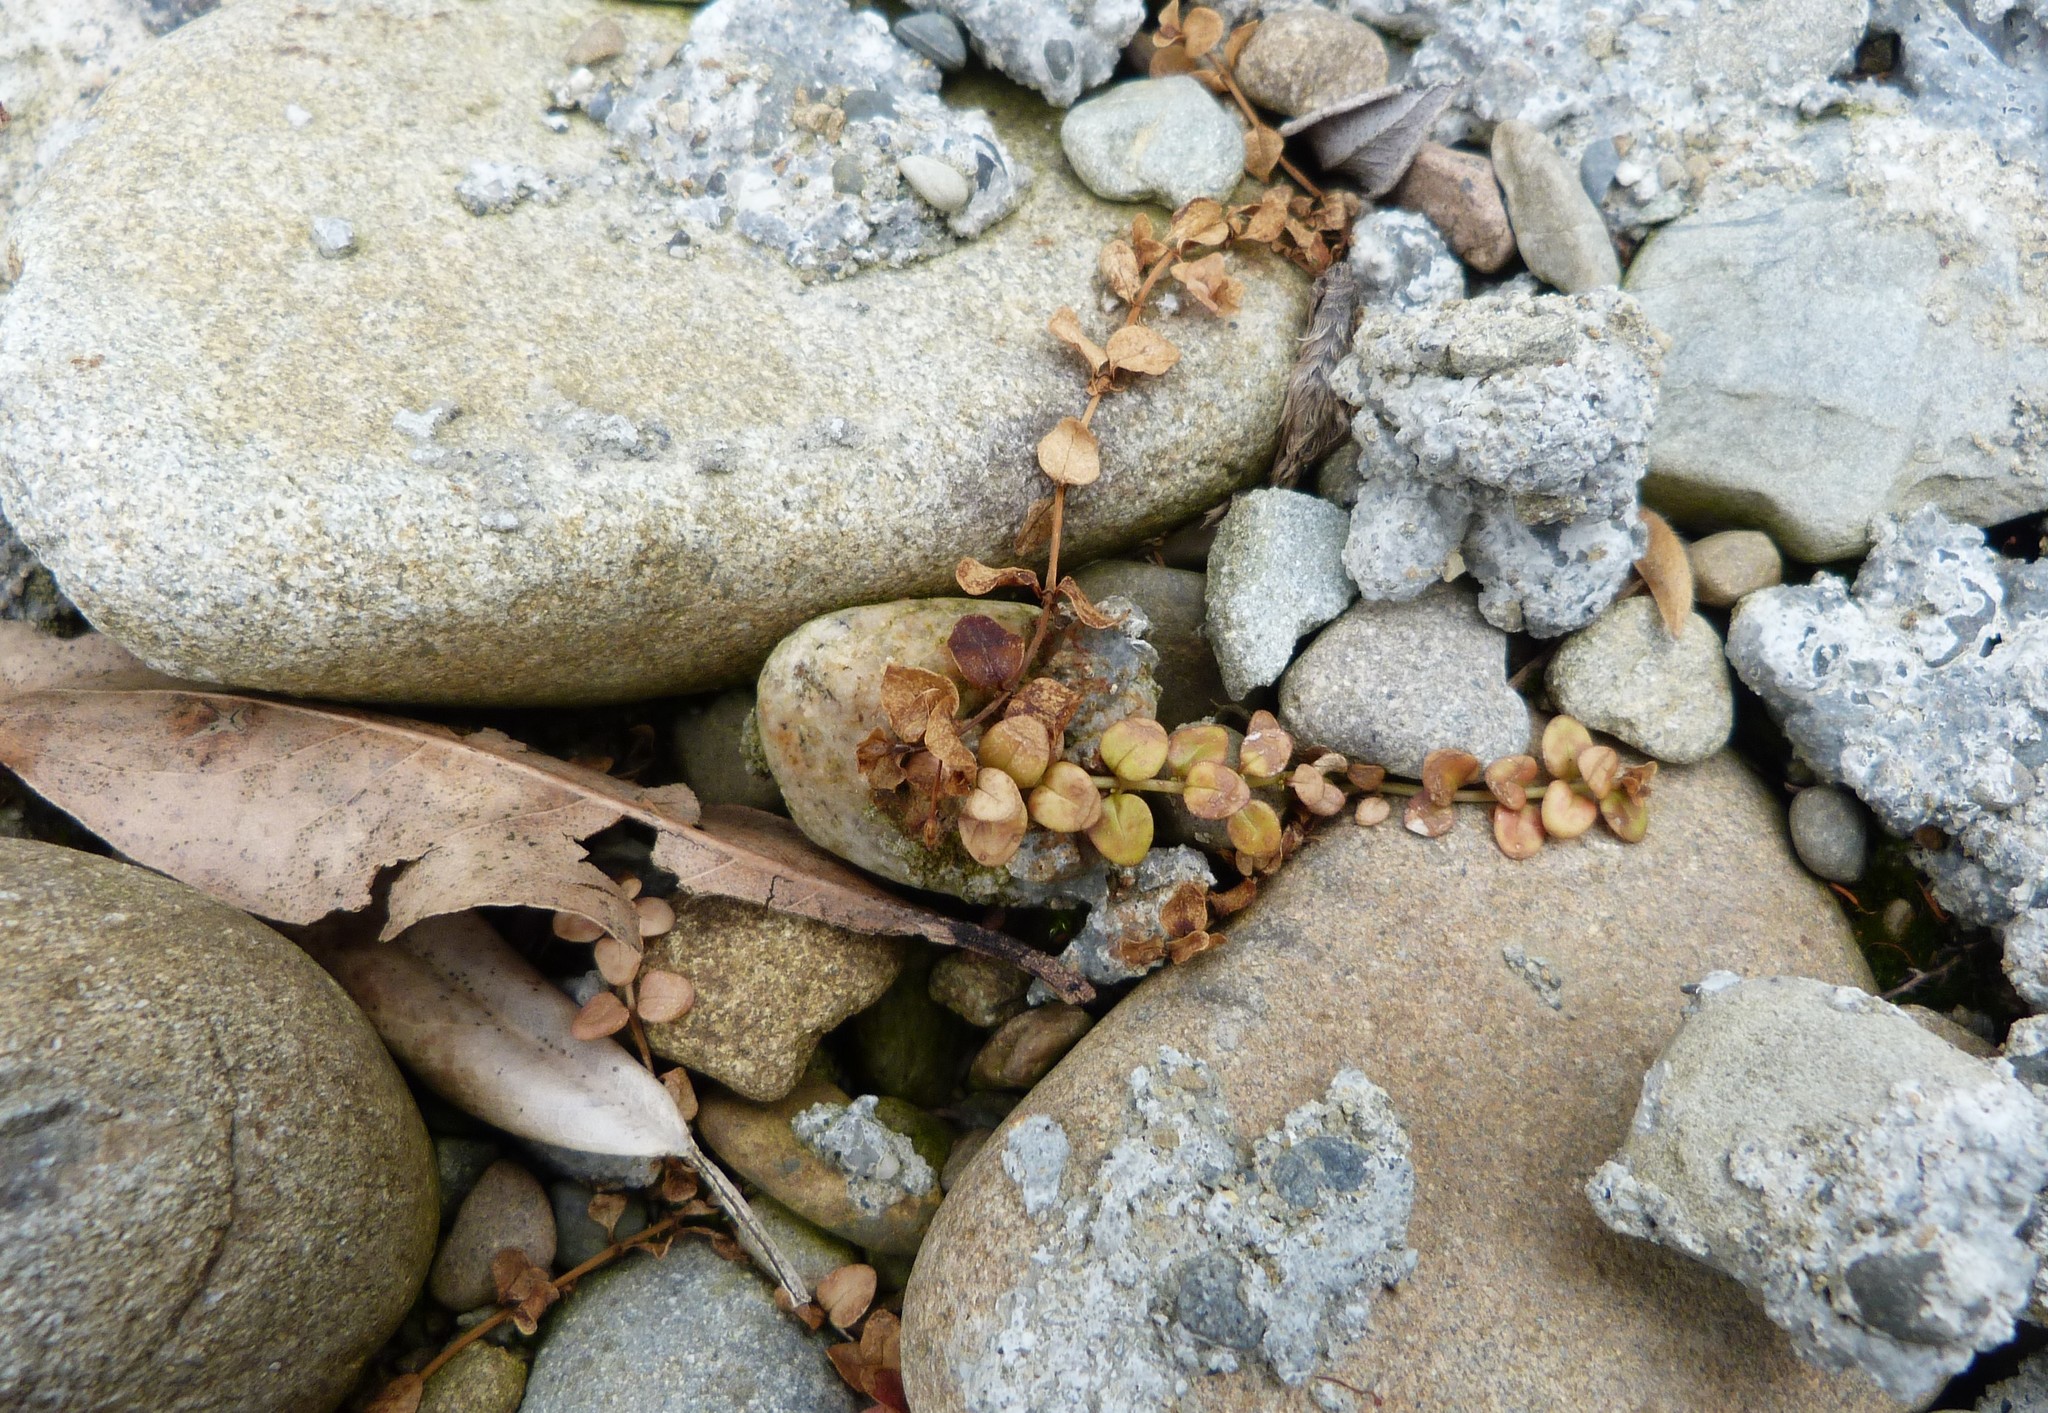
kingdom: Plantae
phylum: Tracheophyta
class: Magnoliopsida
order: Myrtales
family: Onagraceae
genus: Epilobium
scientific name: Epilobium brunnescens
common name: New zealand willowherb
